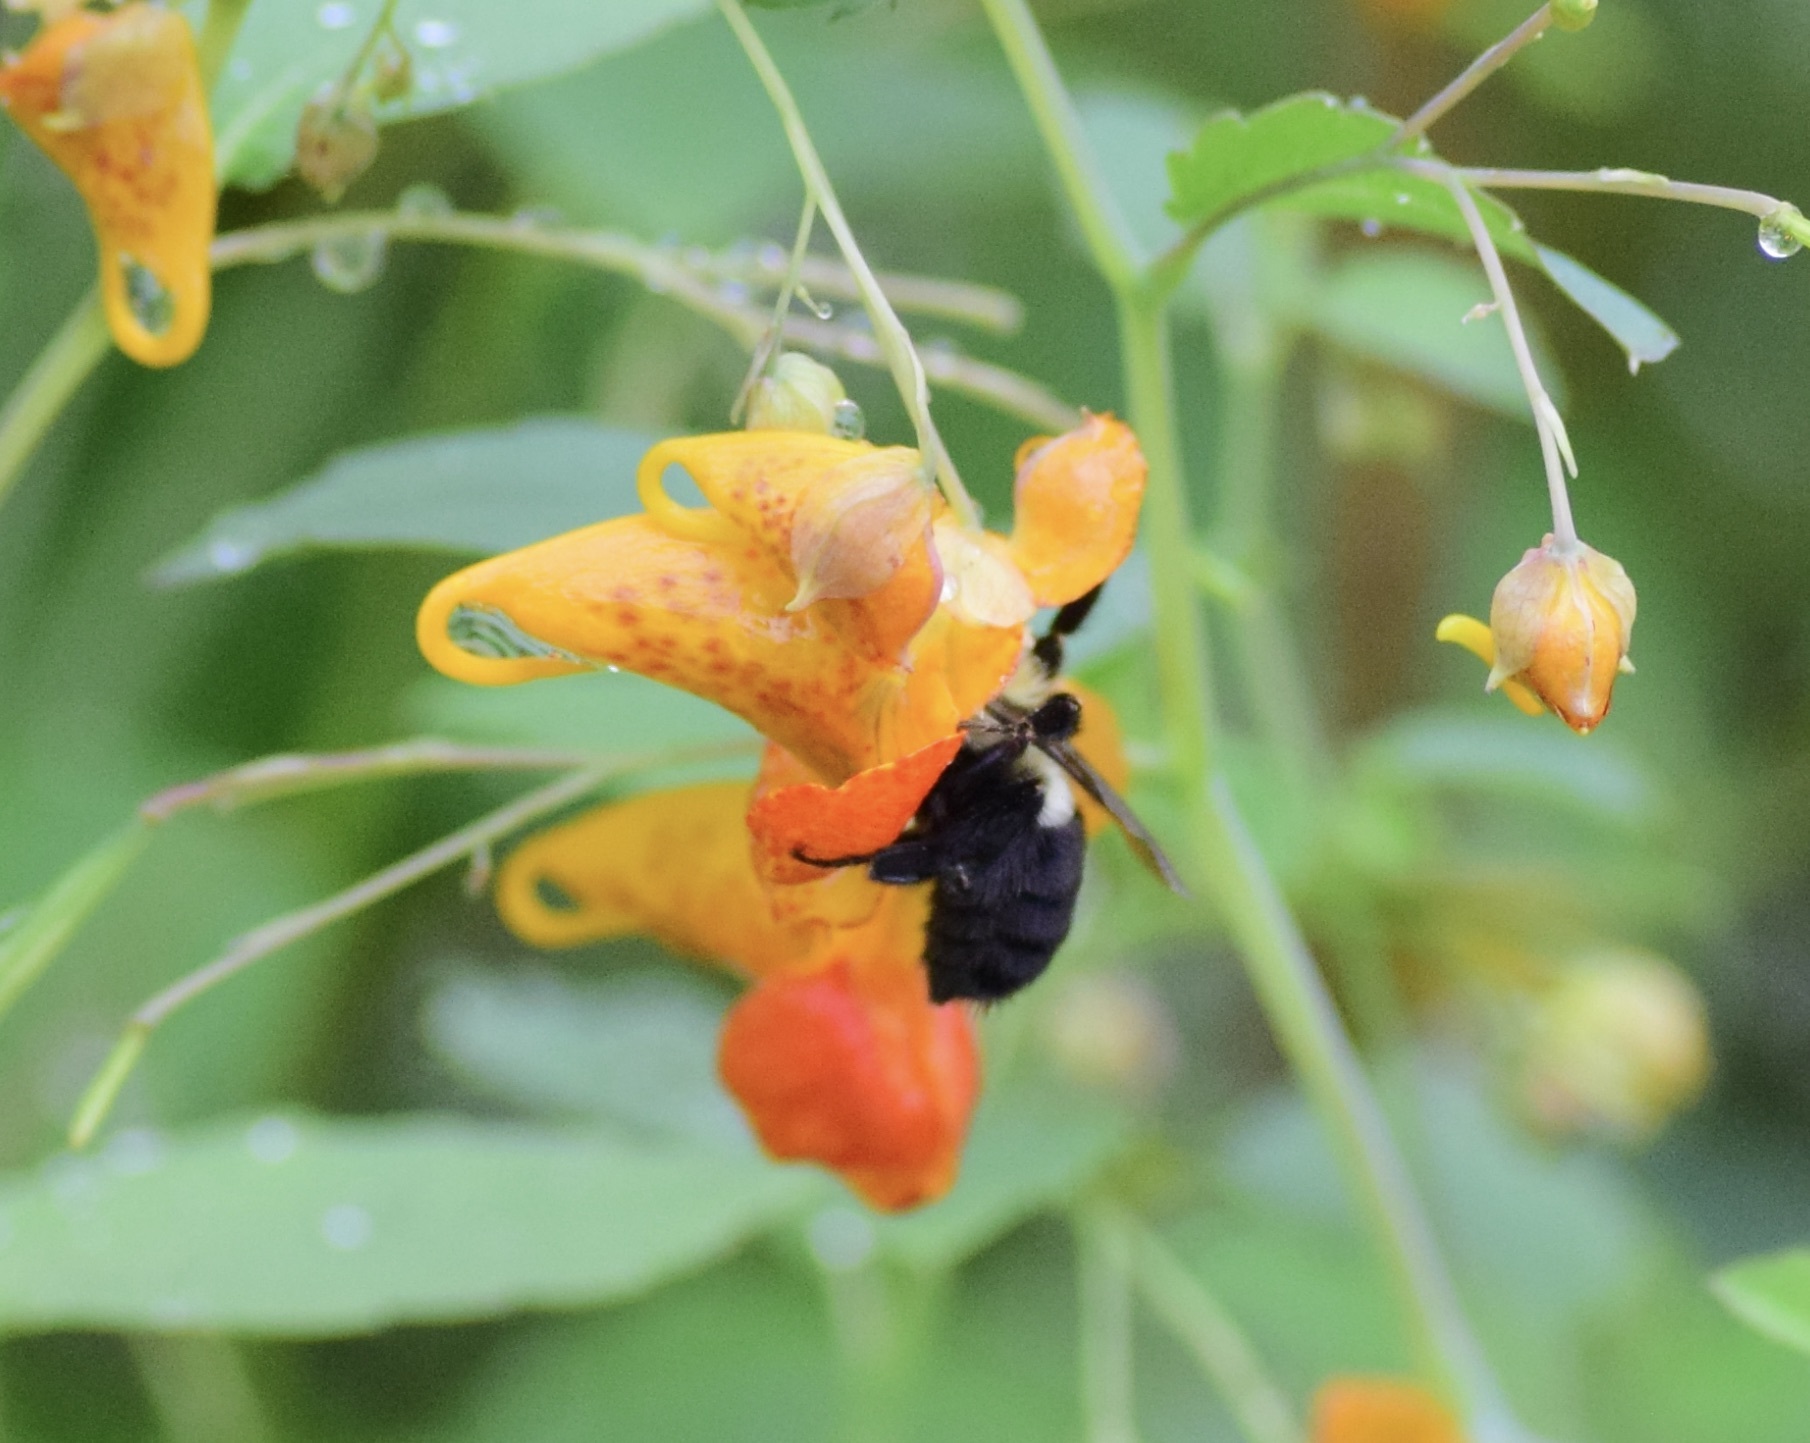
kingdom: Animalia
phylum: Arthropoda
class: Insecta
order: Hymenoptera
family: Apidae
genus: Bombus
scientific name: Bombus impatiens
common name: Common eastern bumble bee
